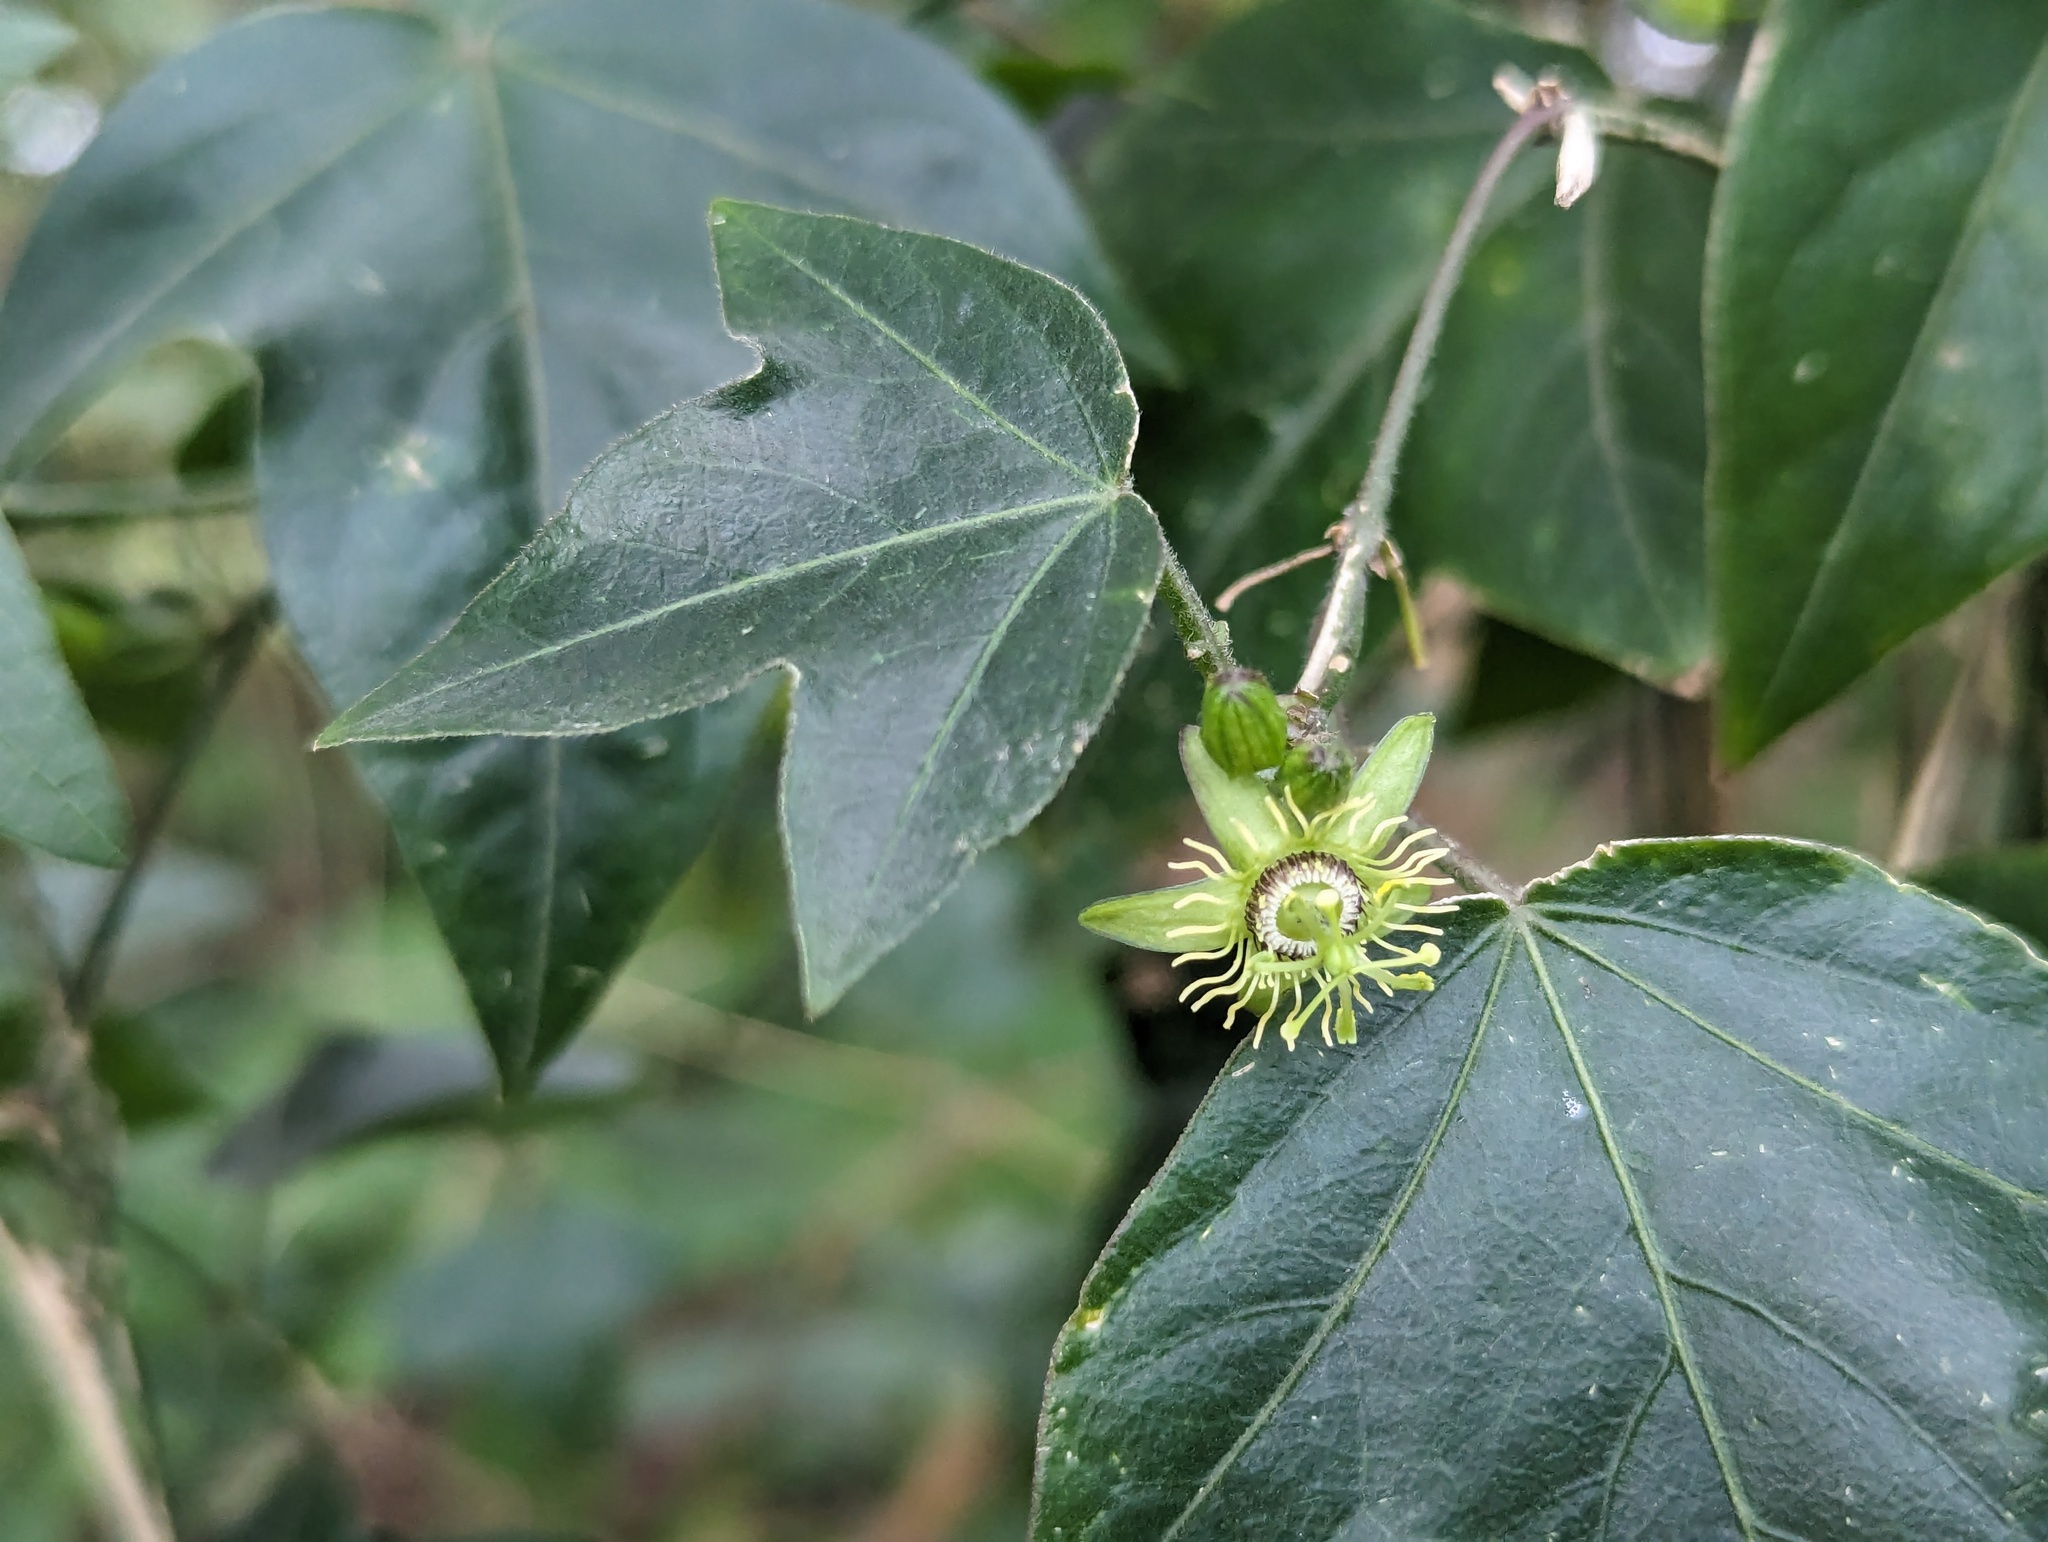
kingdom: Plantae
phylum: Tracheophyta
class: Magnoliopsida
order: Malpighiales
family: Passifloraceae
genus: Passiflora
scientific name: Passiflora suberosa
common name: Wild passionfruit
